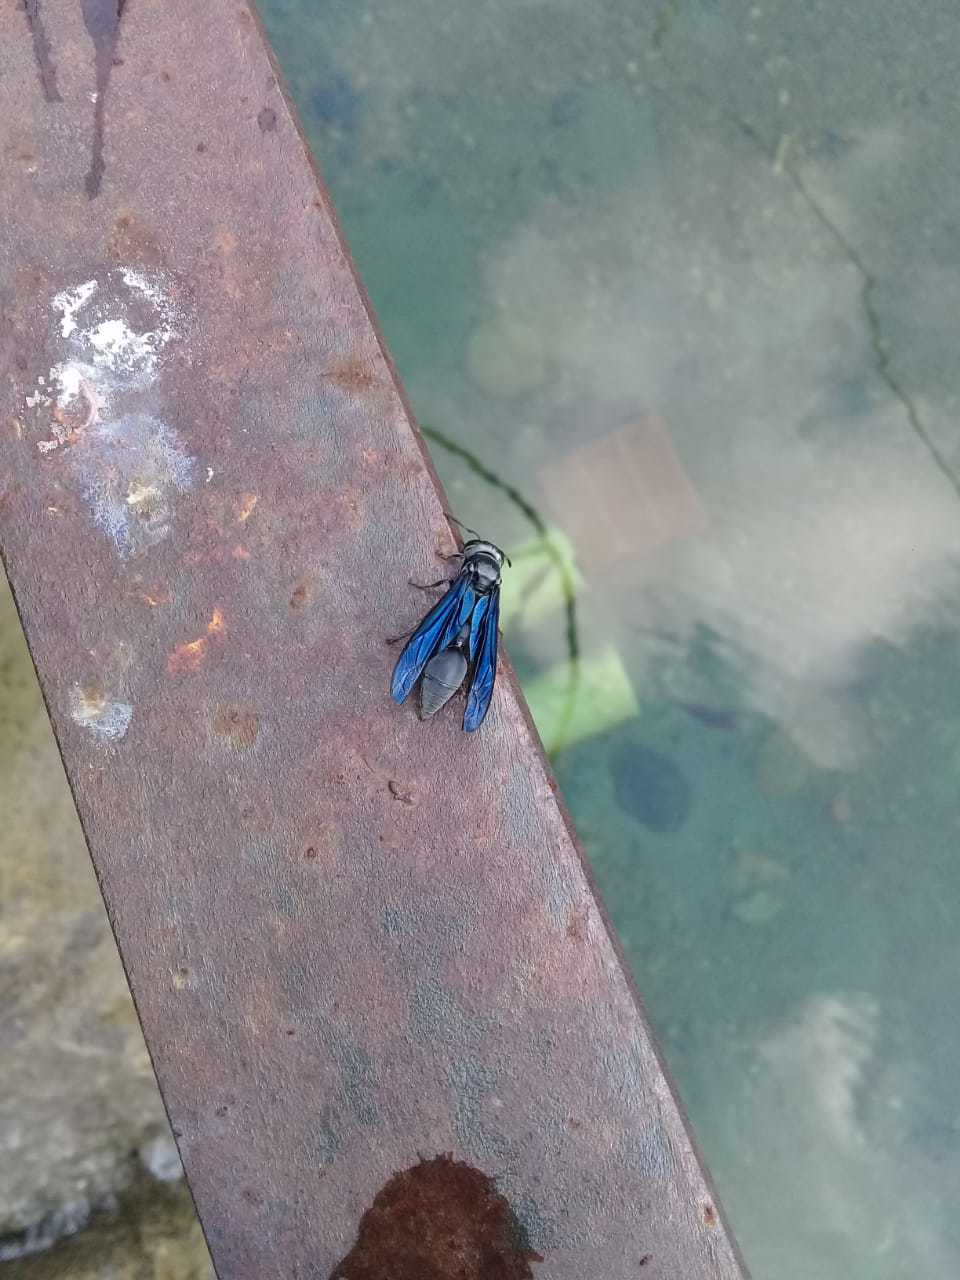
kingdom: Animalia
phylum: Arthropoda
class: Insecta
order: Hymenoptera
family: Vespidae
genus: Synoeca
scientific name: Synoeca
